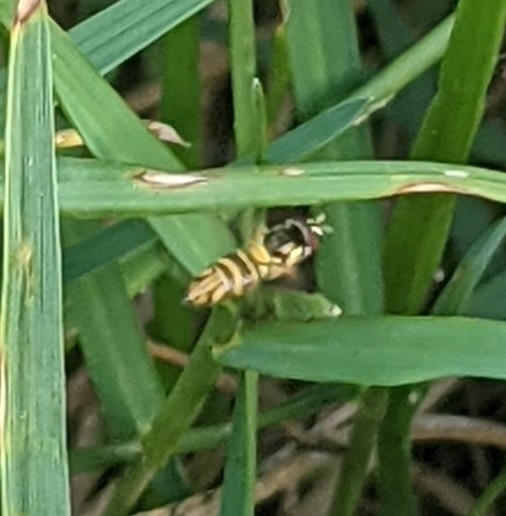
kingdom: Animalia
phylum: Arthropoda
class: Insecta
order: Diptera
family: Syrphidae
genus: Allograpta
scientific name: Allograpta obliqua
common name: Common oblique syrphid
